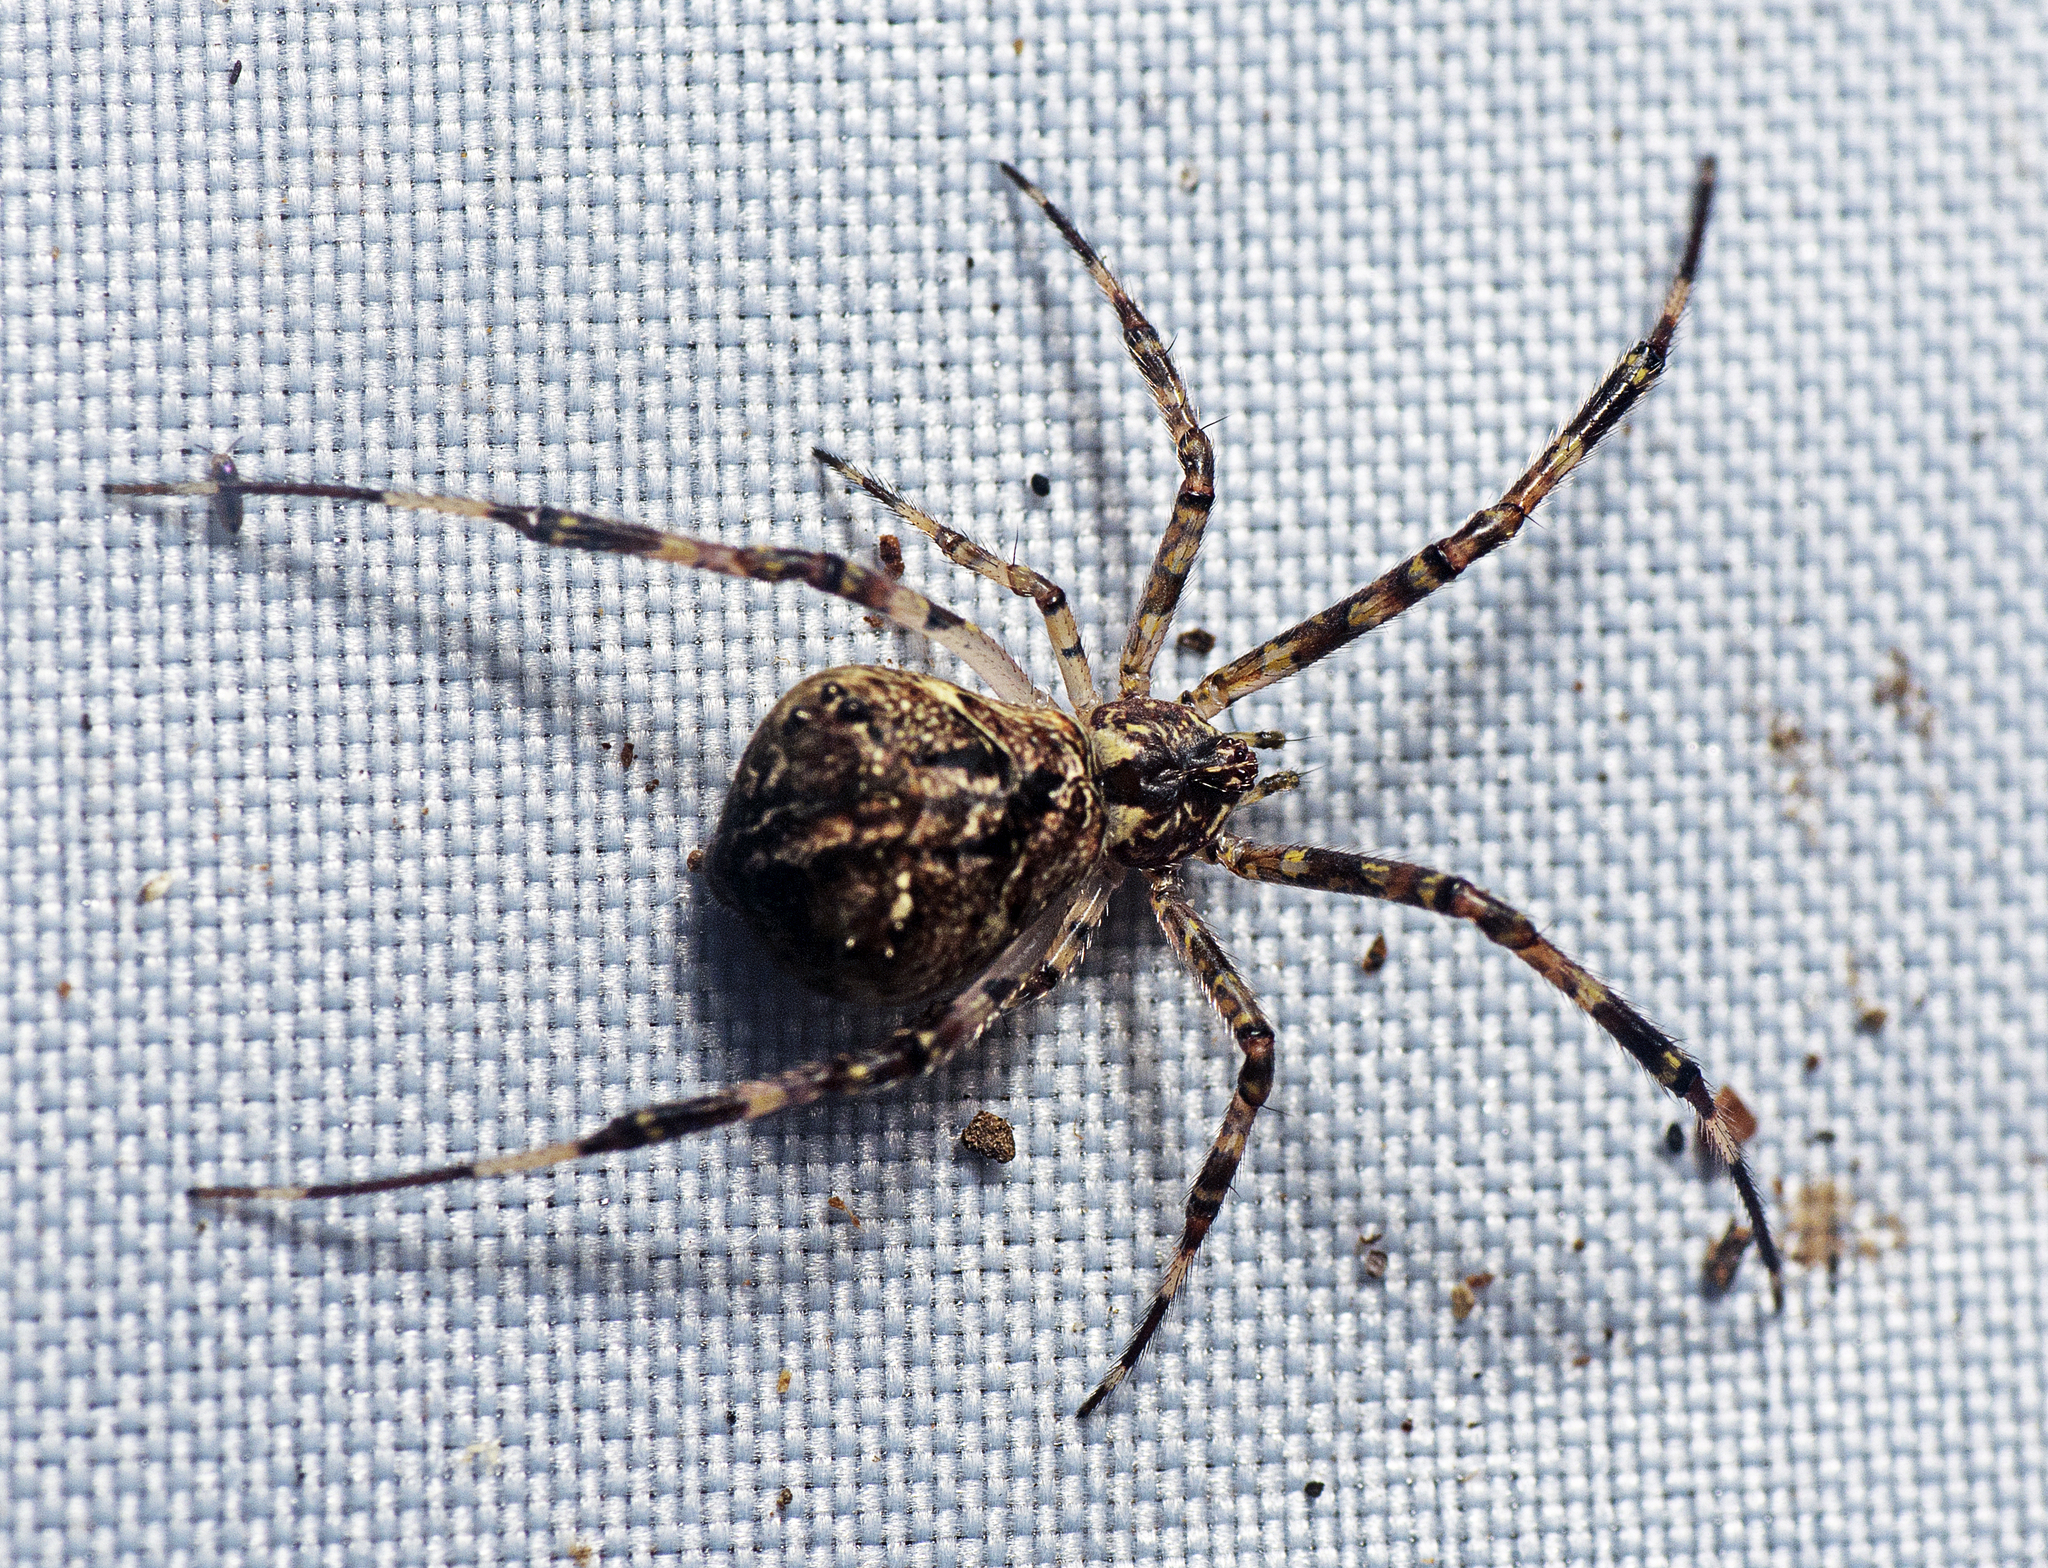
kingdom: Animalia
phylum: Arthropoda
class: Arachnida
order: Araneae
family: Theridiidae
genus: Janula
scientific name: Janula bicornis
